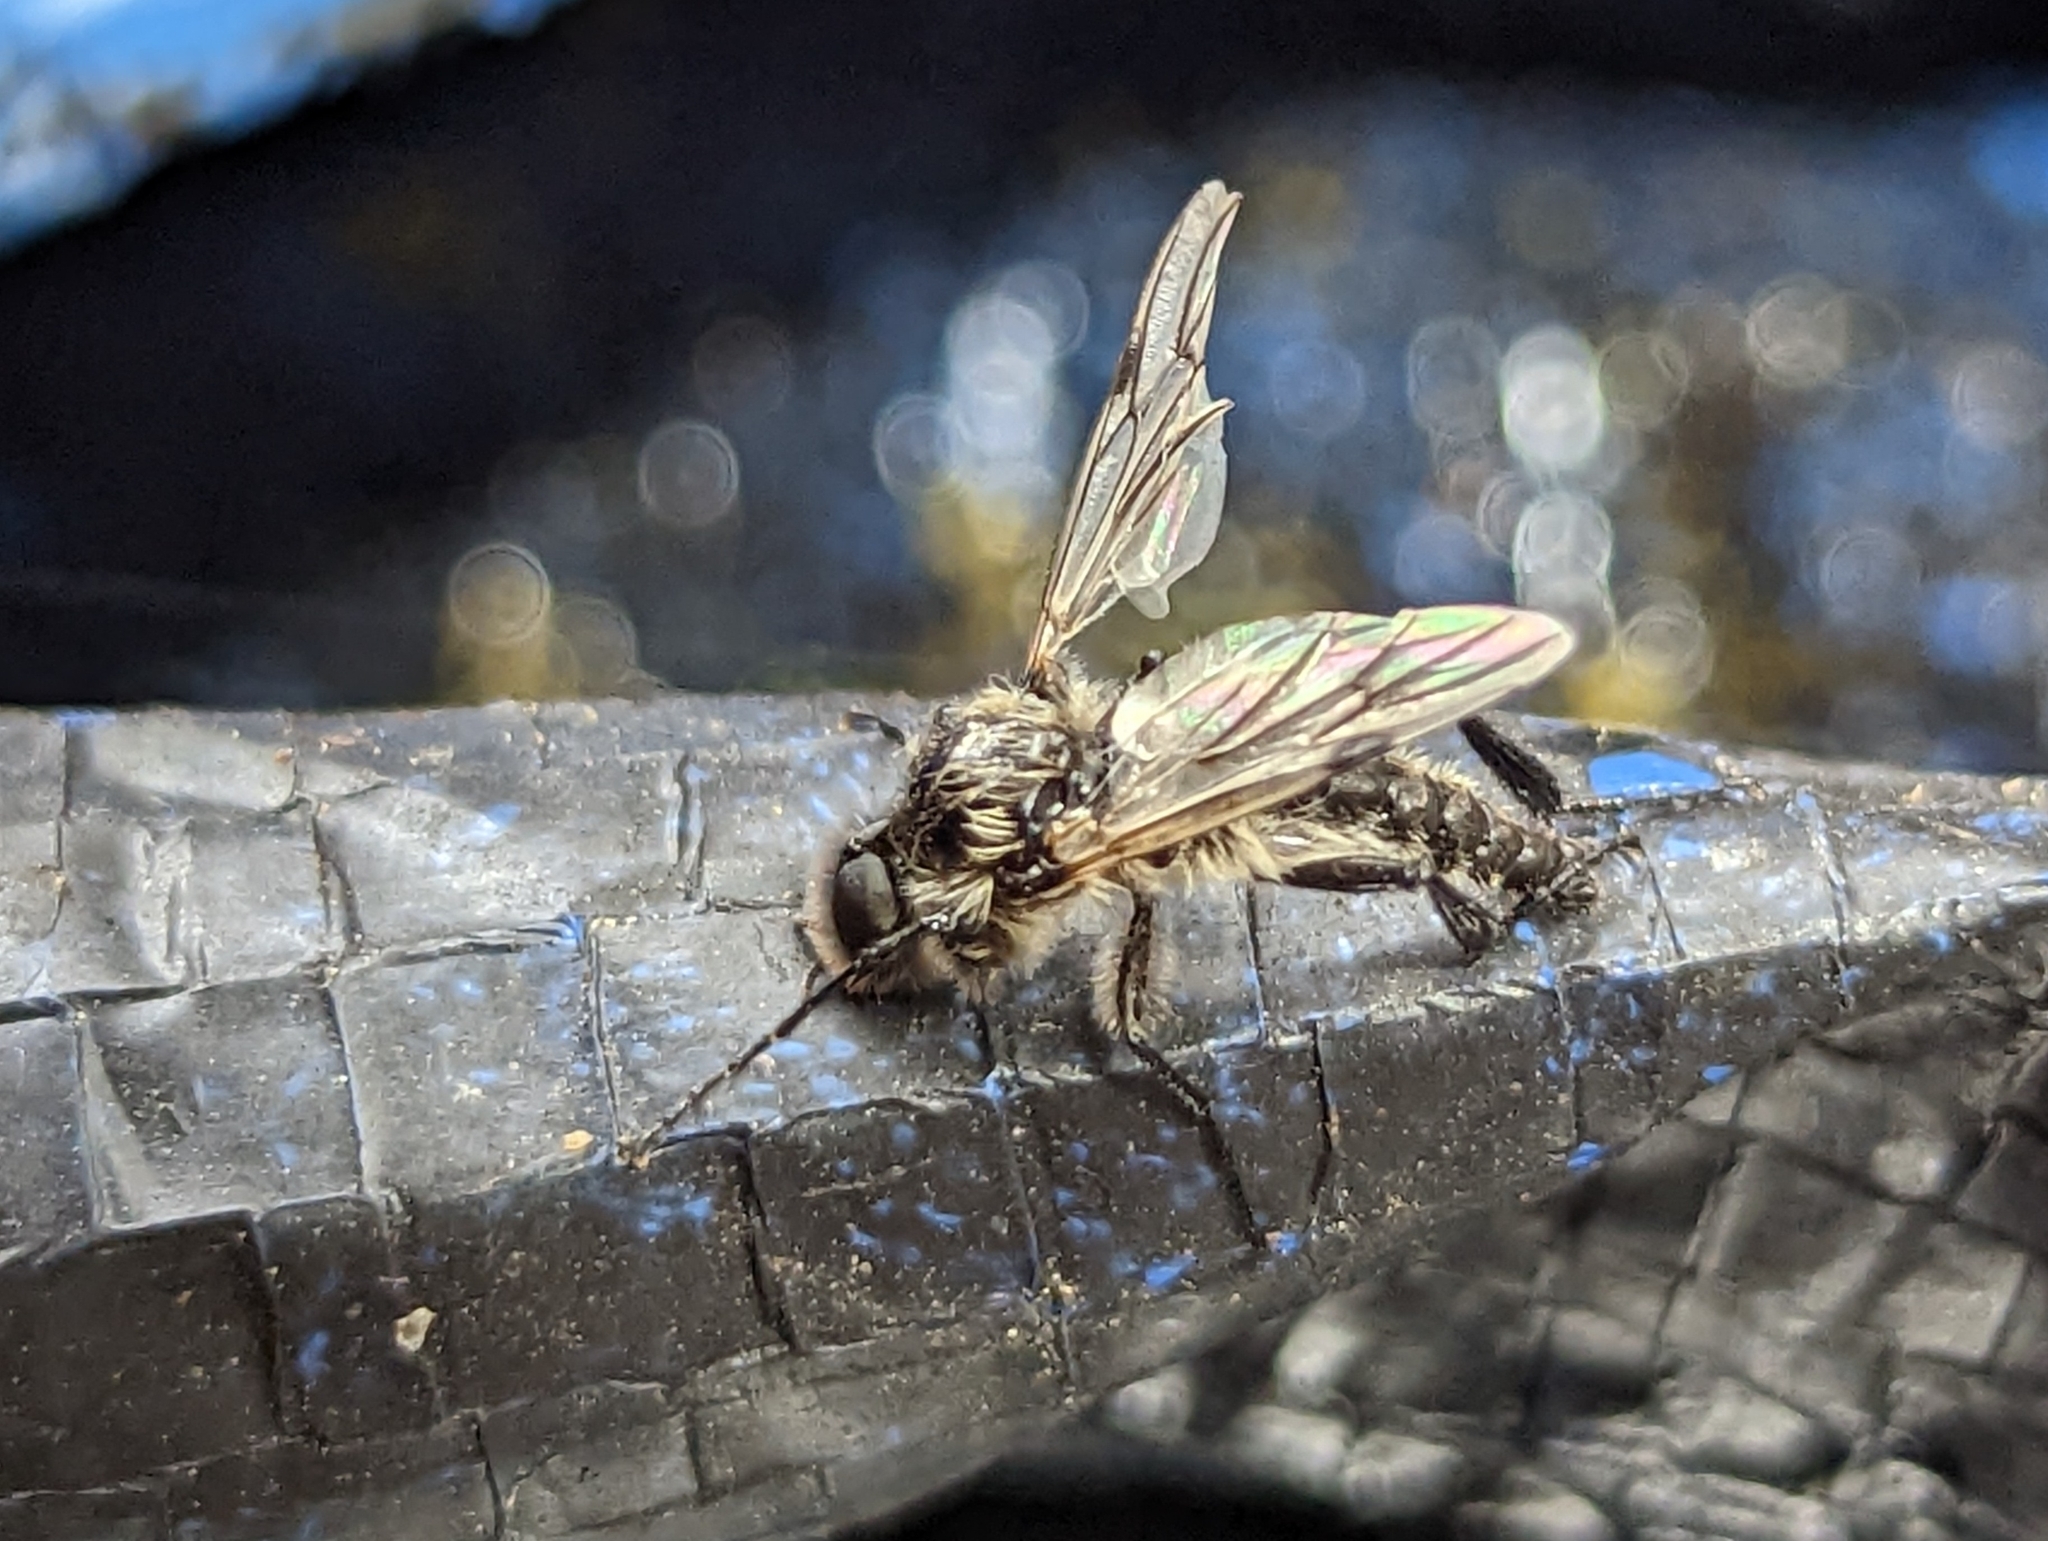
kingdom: Animalia
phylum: Arthropoda
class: Insecta
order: Diptera
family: Bibionidae
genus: Bibio
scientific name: Bibio
